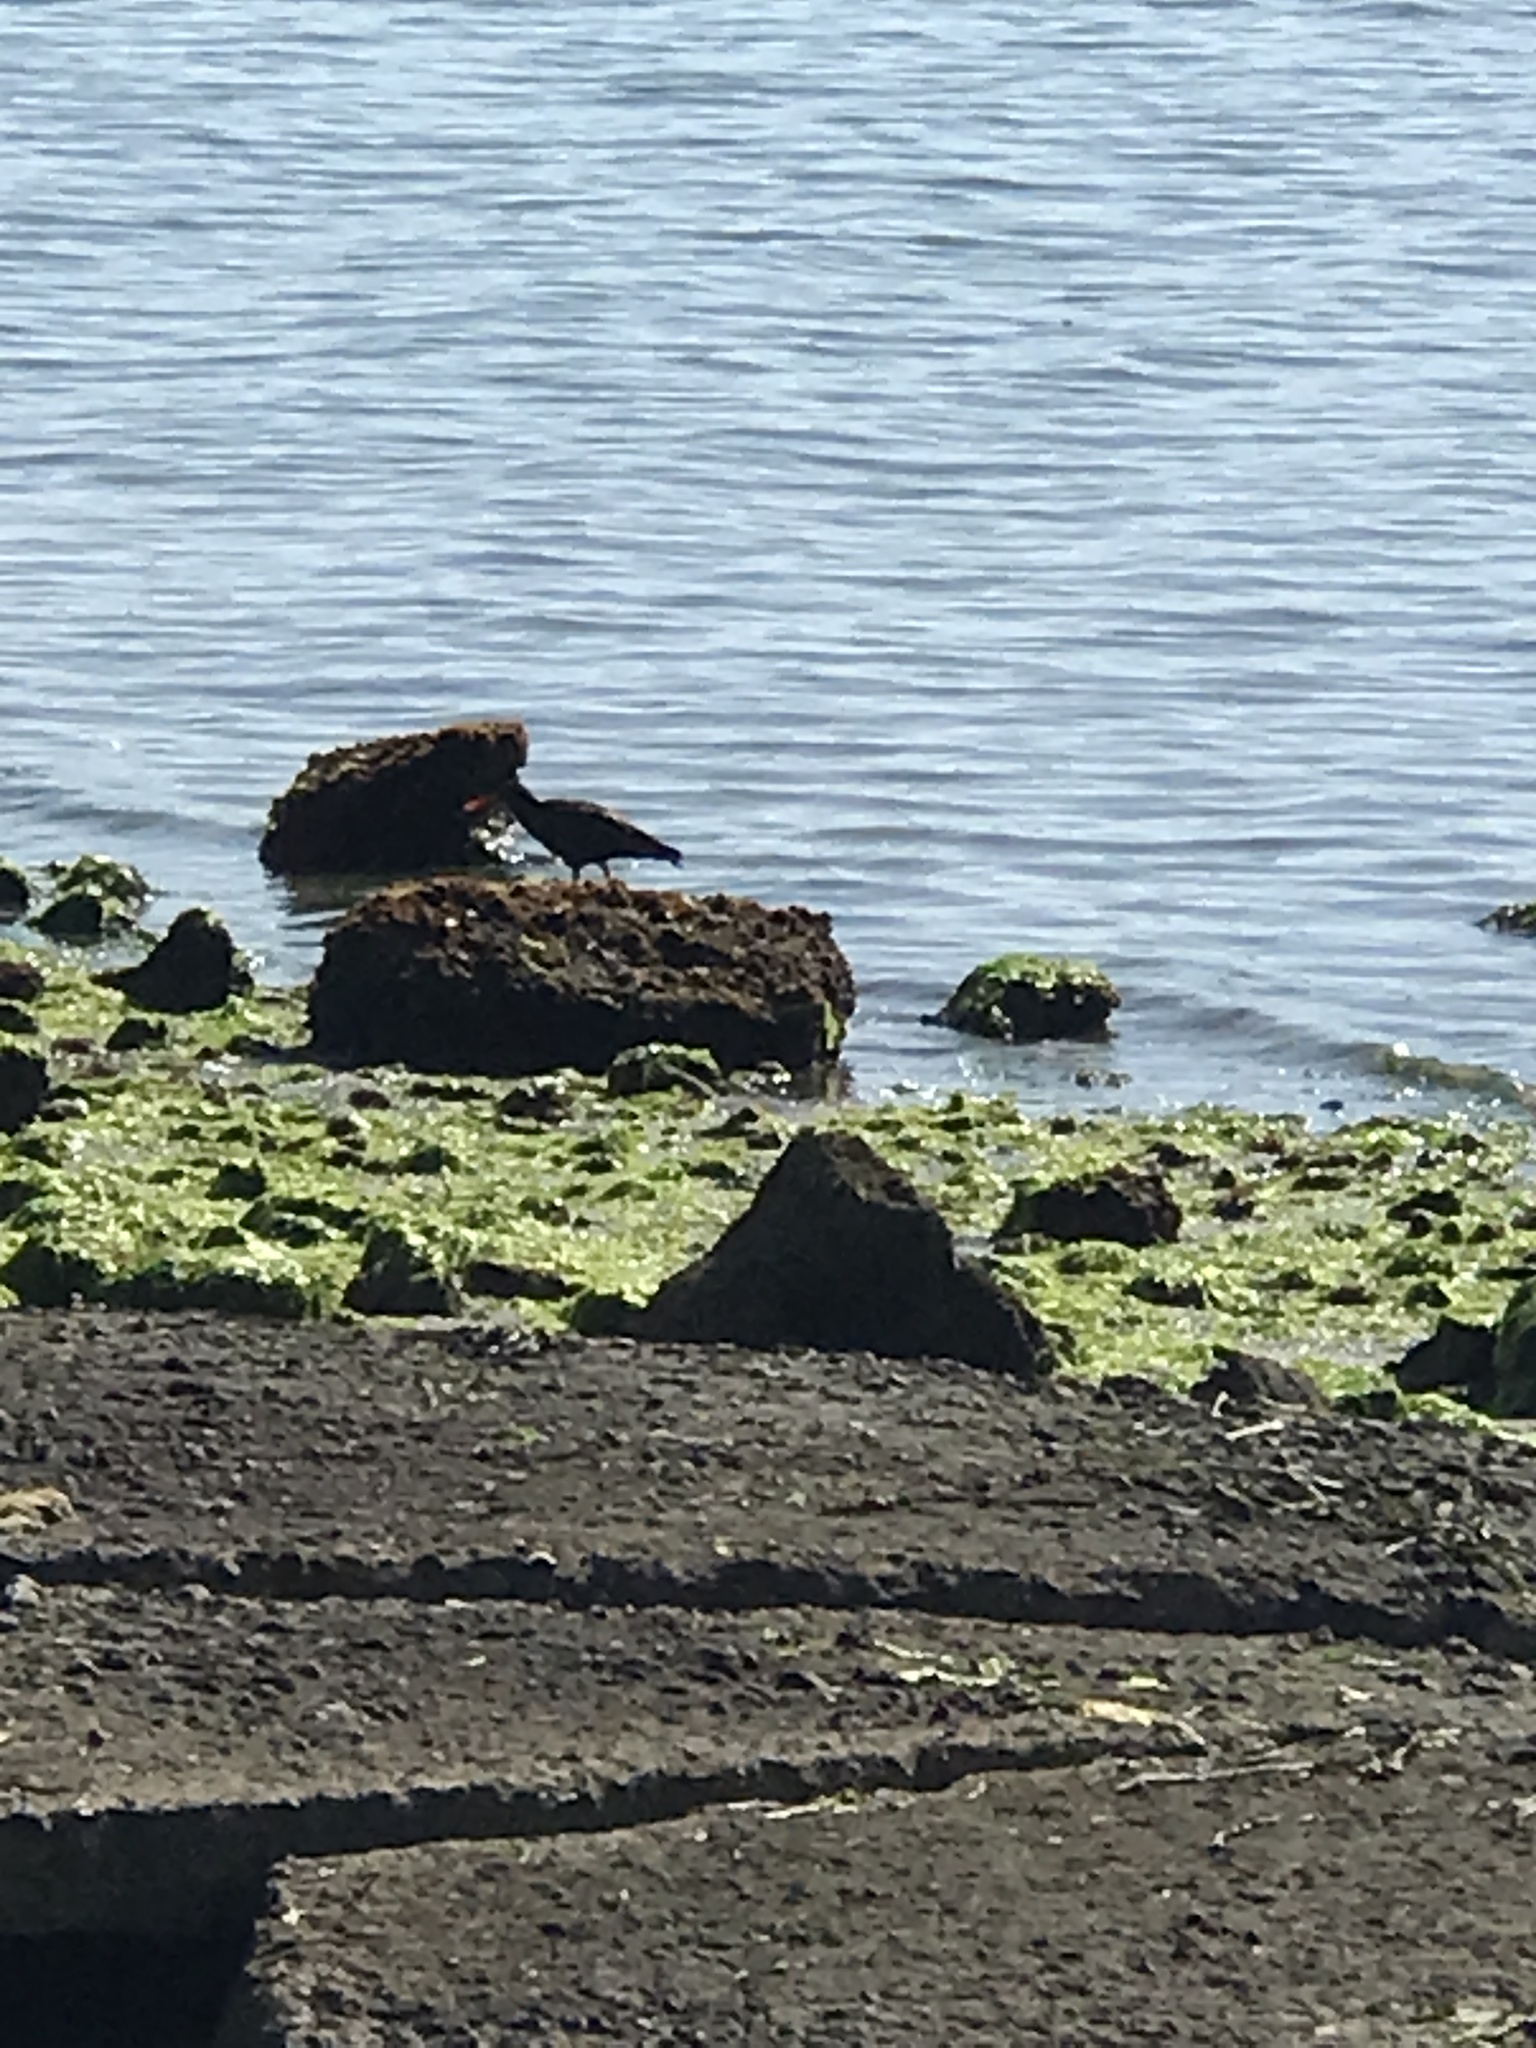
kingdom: Animalia
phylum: Chordata
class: Aves
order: Charadriiformes
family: Haematopodidae
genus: Haematopus
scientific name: Haematopus bachmani
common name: Black oystercatcher
